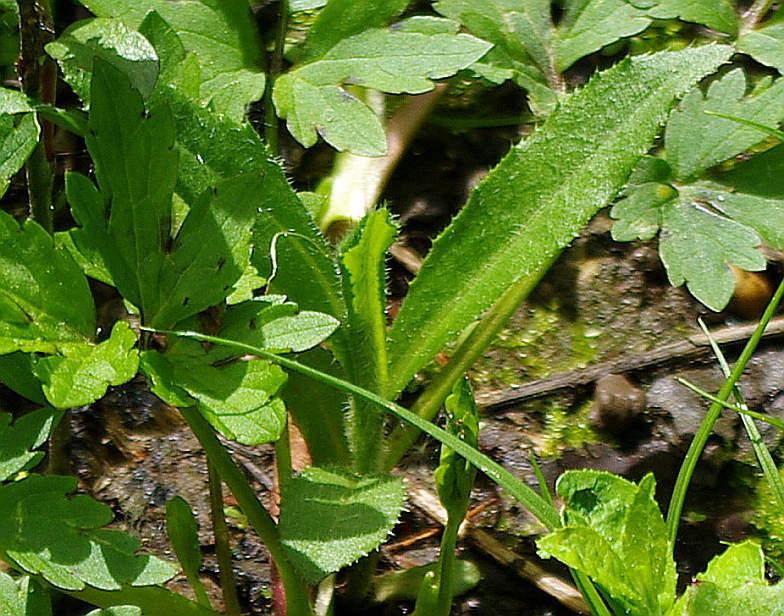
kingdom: Plantae
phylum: Tracheophyta
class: Magnoliopsida
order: Asterales
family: Asteraceae
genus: Cirsium
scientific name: Cirsium arvense
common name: Creeping thistle
